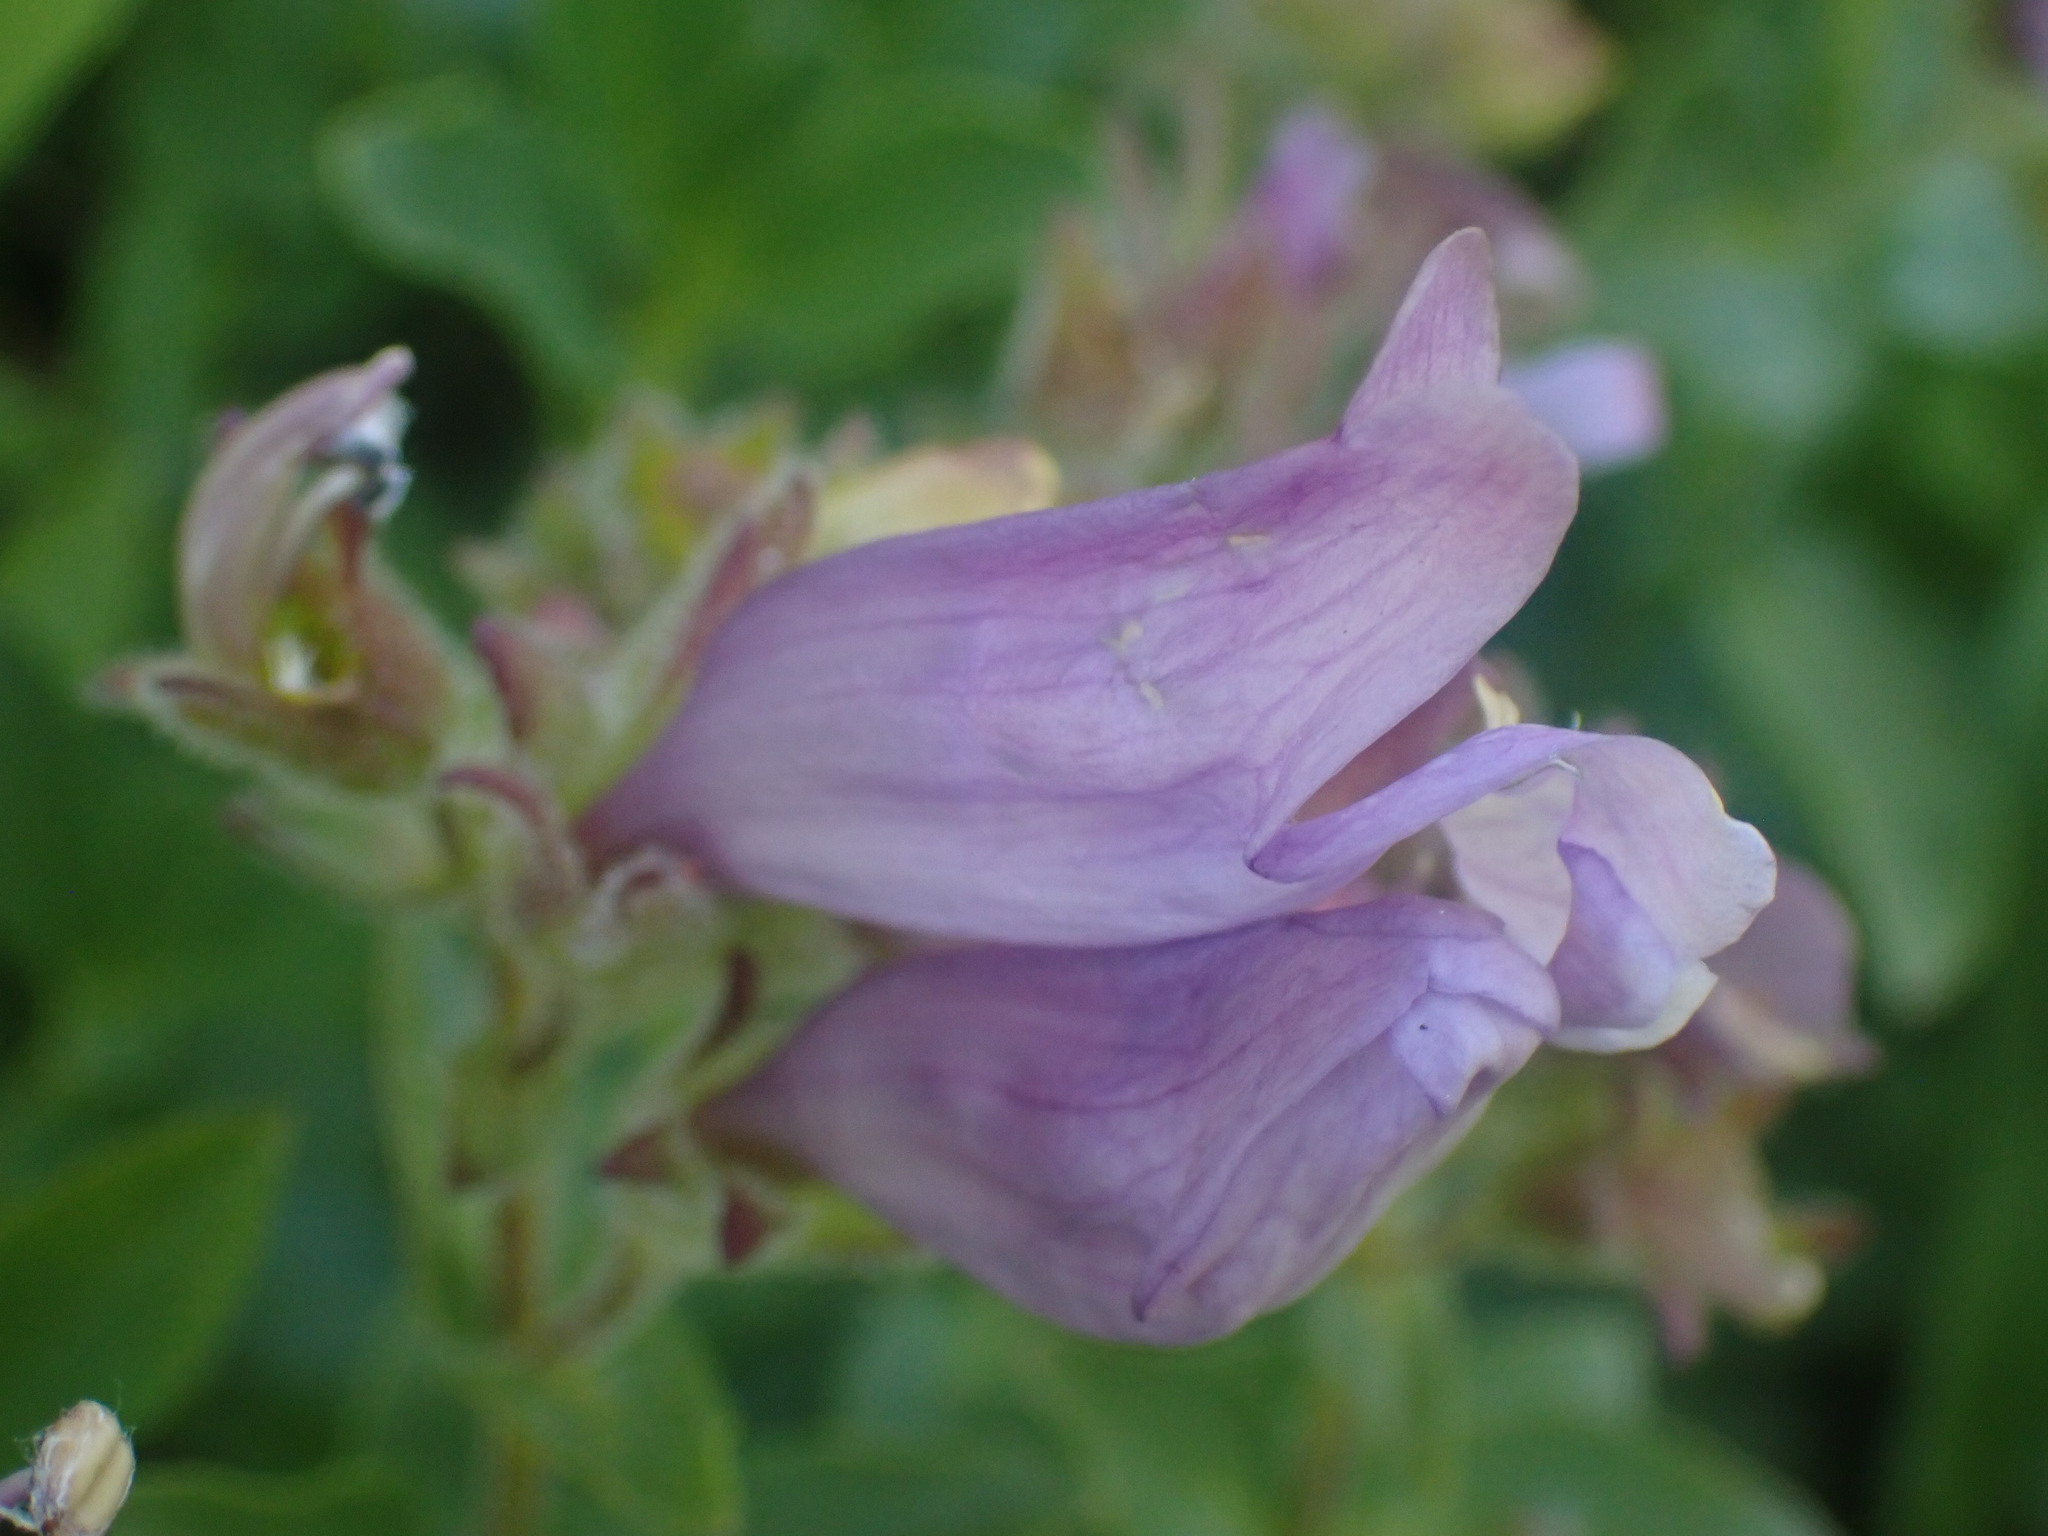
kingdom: Plantae
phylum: Tracheophyta
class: Magnoliopsida
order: Lamiales
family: Plantaginaceae
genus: Penstemon
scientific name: Penstemon ellipticus
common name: Alpine beardtongue
